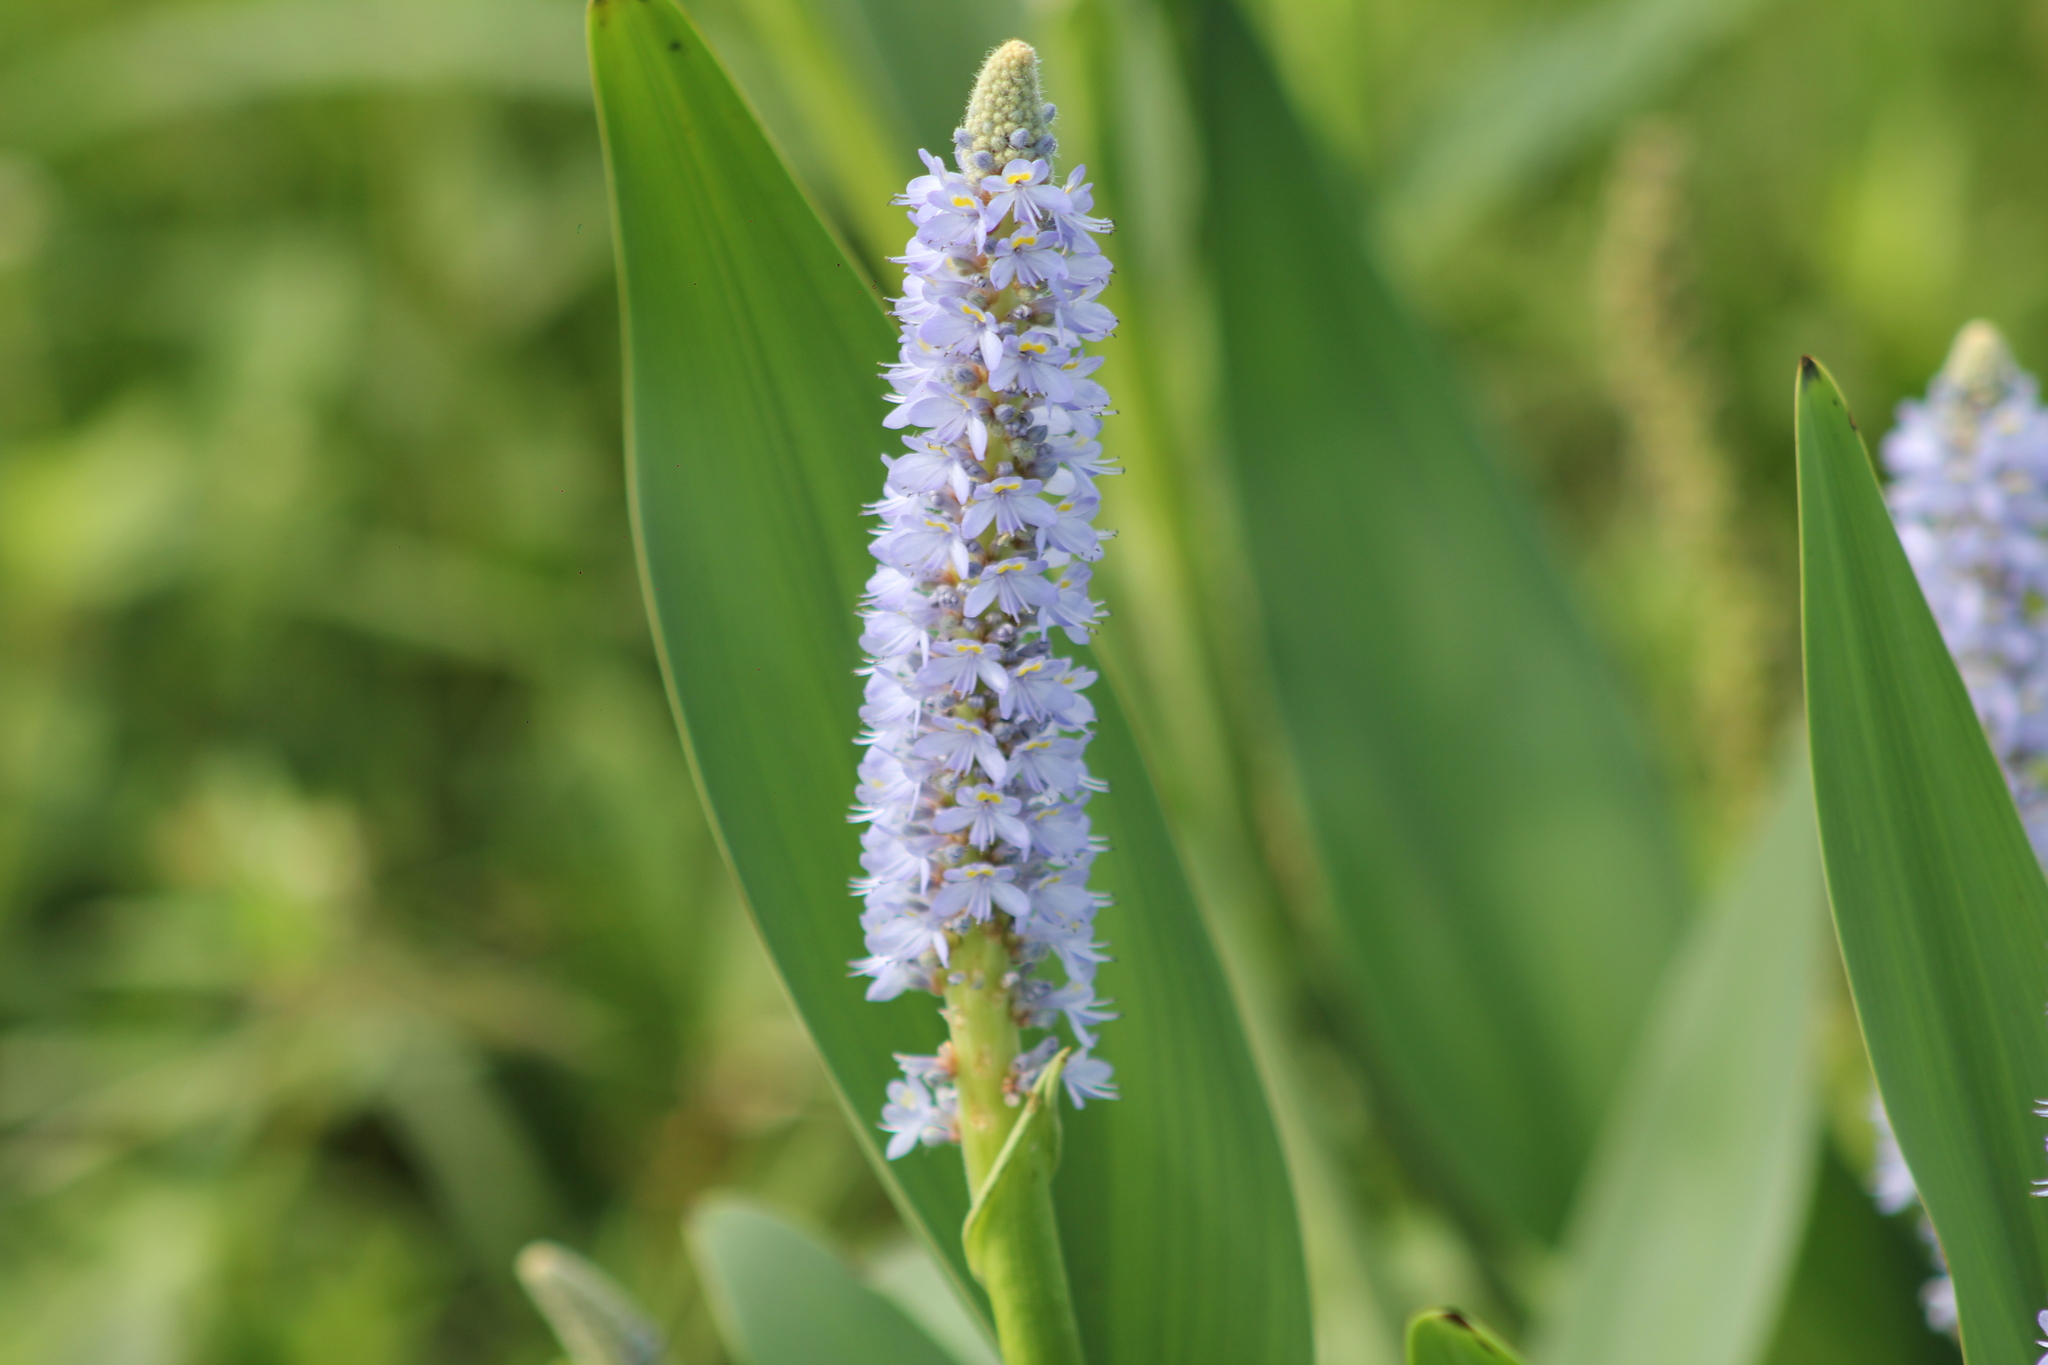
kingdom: Plantae
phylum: Tracheophyta
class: Liliopsida
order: Commelinales
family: Pontederiaceae
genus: Pontederia
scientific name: Pontederia cordata
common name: Pickerelweed
